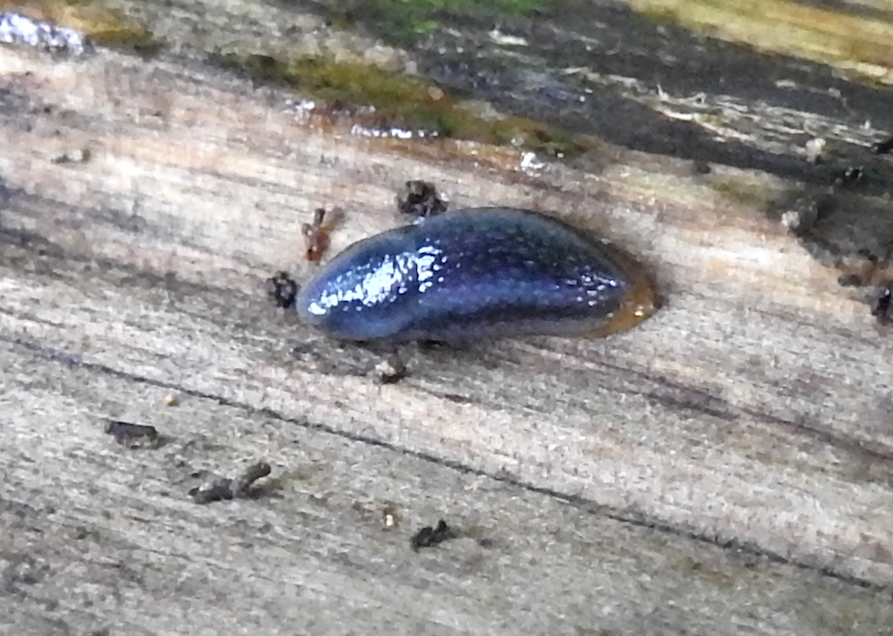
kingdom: Animalia
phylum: Mollusca
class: Gastropoda
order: Stylommatophora
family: Arionidae
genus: Kobeltia
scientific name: Kobeltia
